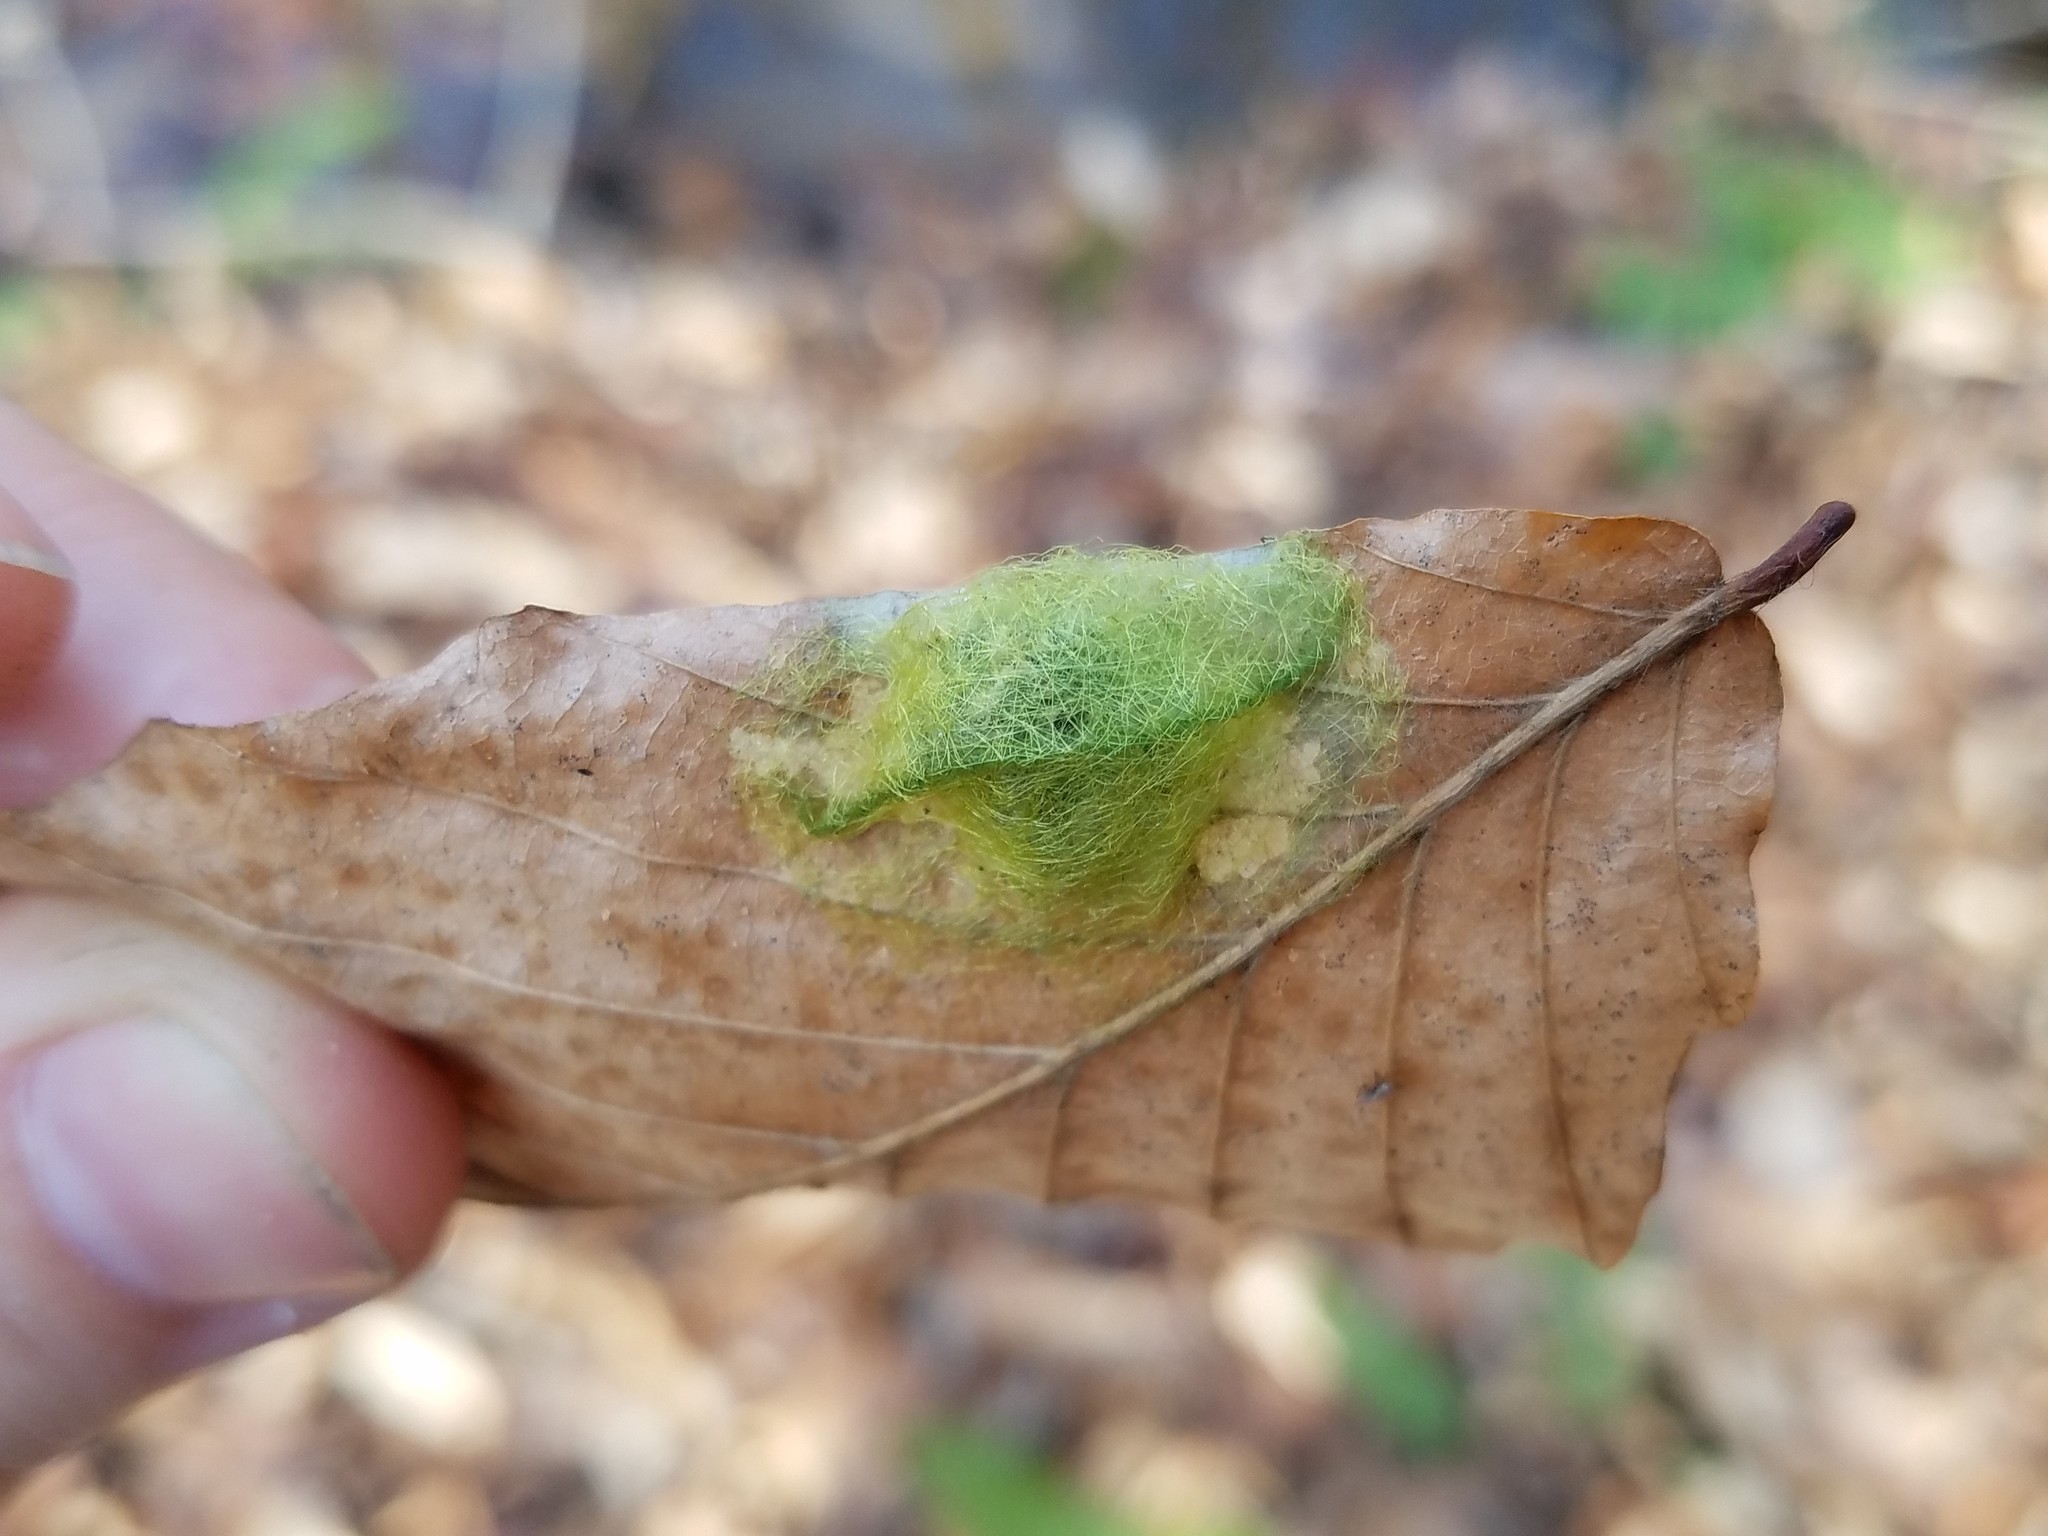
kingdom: Animalia
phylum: Arthropoda
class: Arachnida
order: Araneae
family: Araneidae
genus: Gasteracantha
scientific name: Gasteracantha cancriformis
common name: Orb weavers
